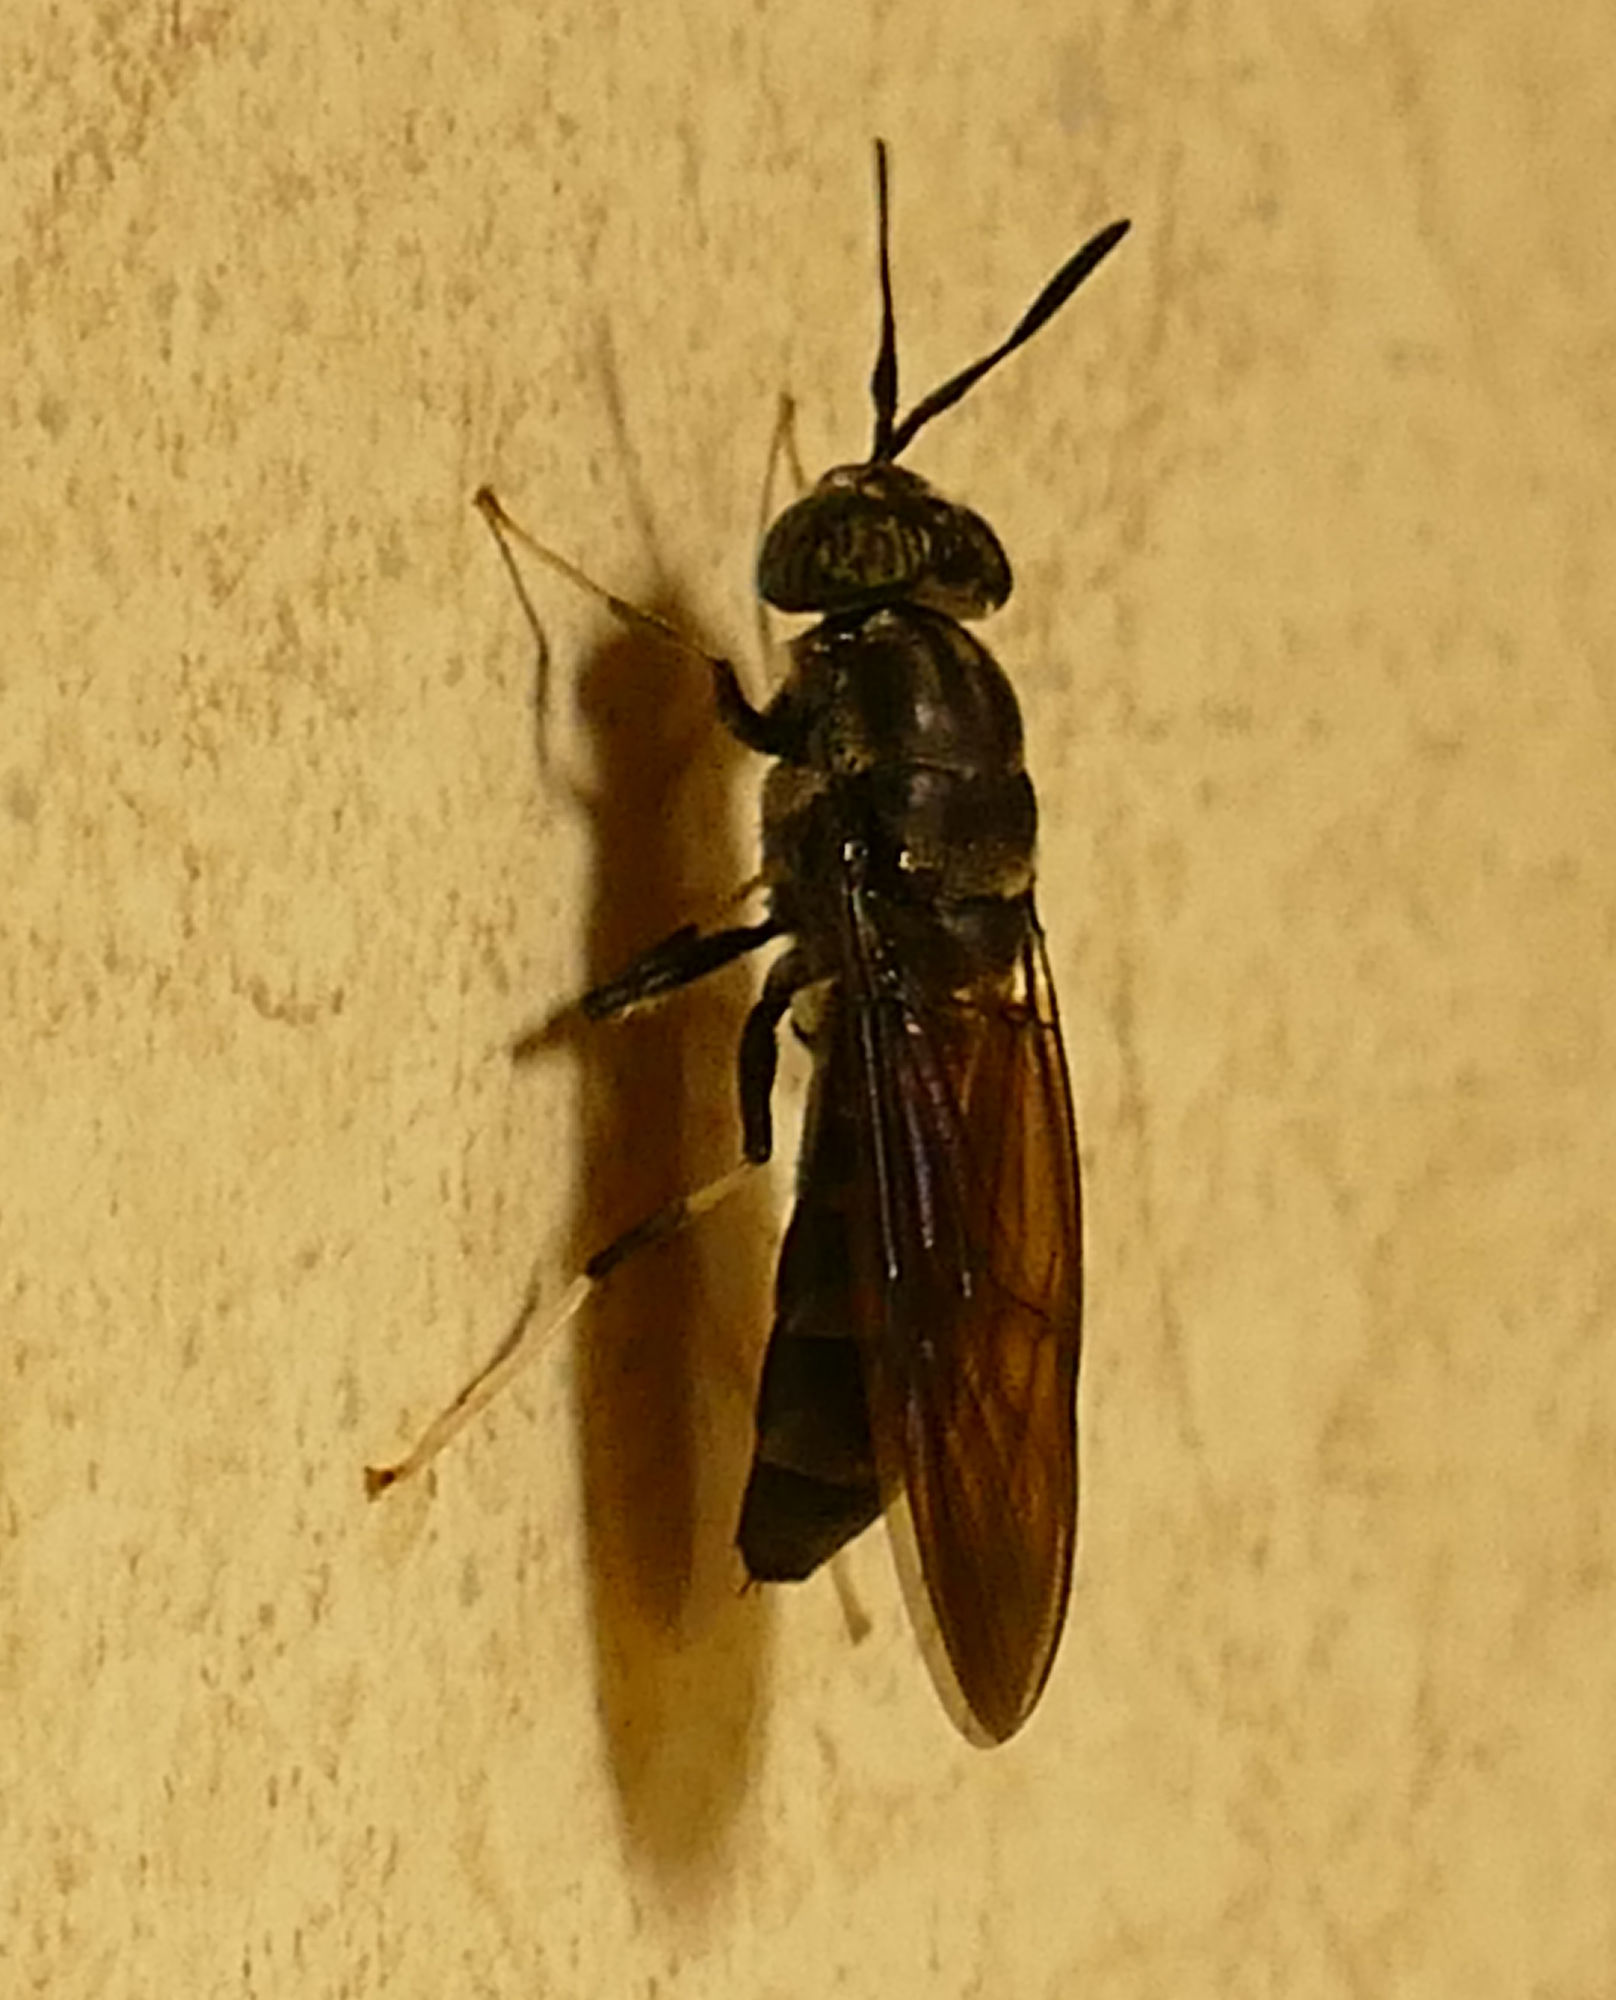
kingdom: Animalia
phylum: Arthropoda
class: Insecta
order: Diptera
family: Stratiomyidae
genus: Hermetia
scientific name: Hermetia illucens
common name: Black soldier fly
